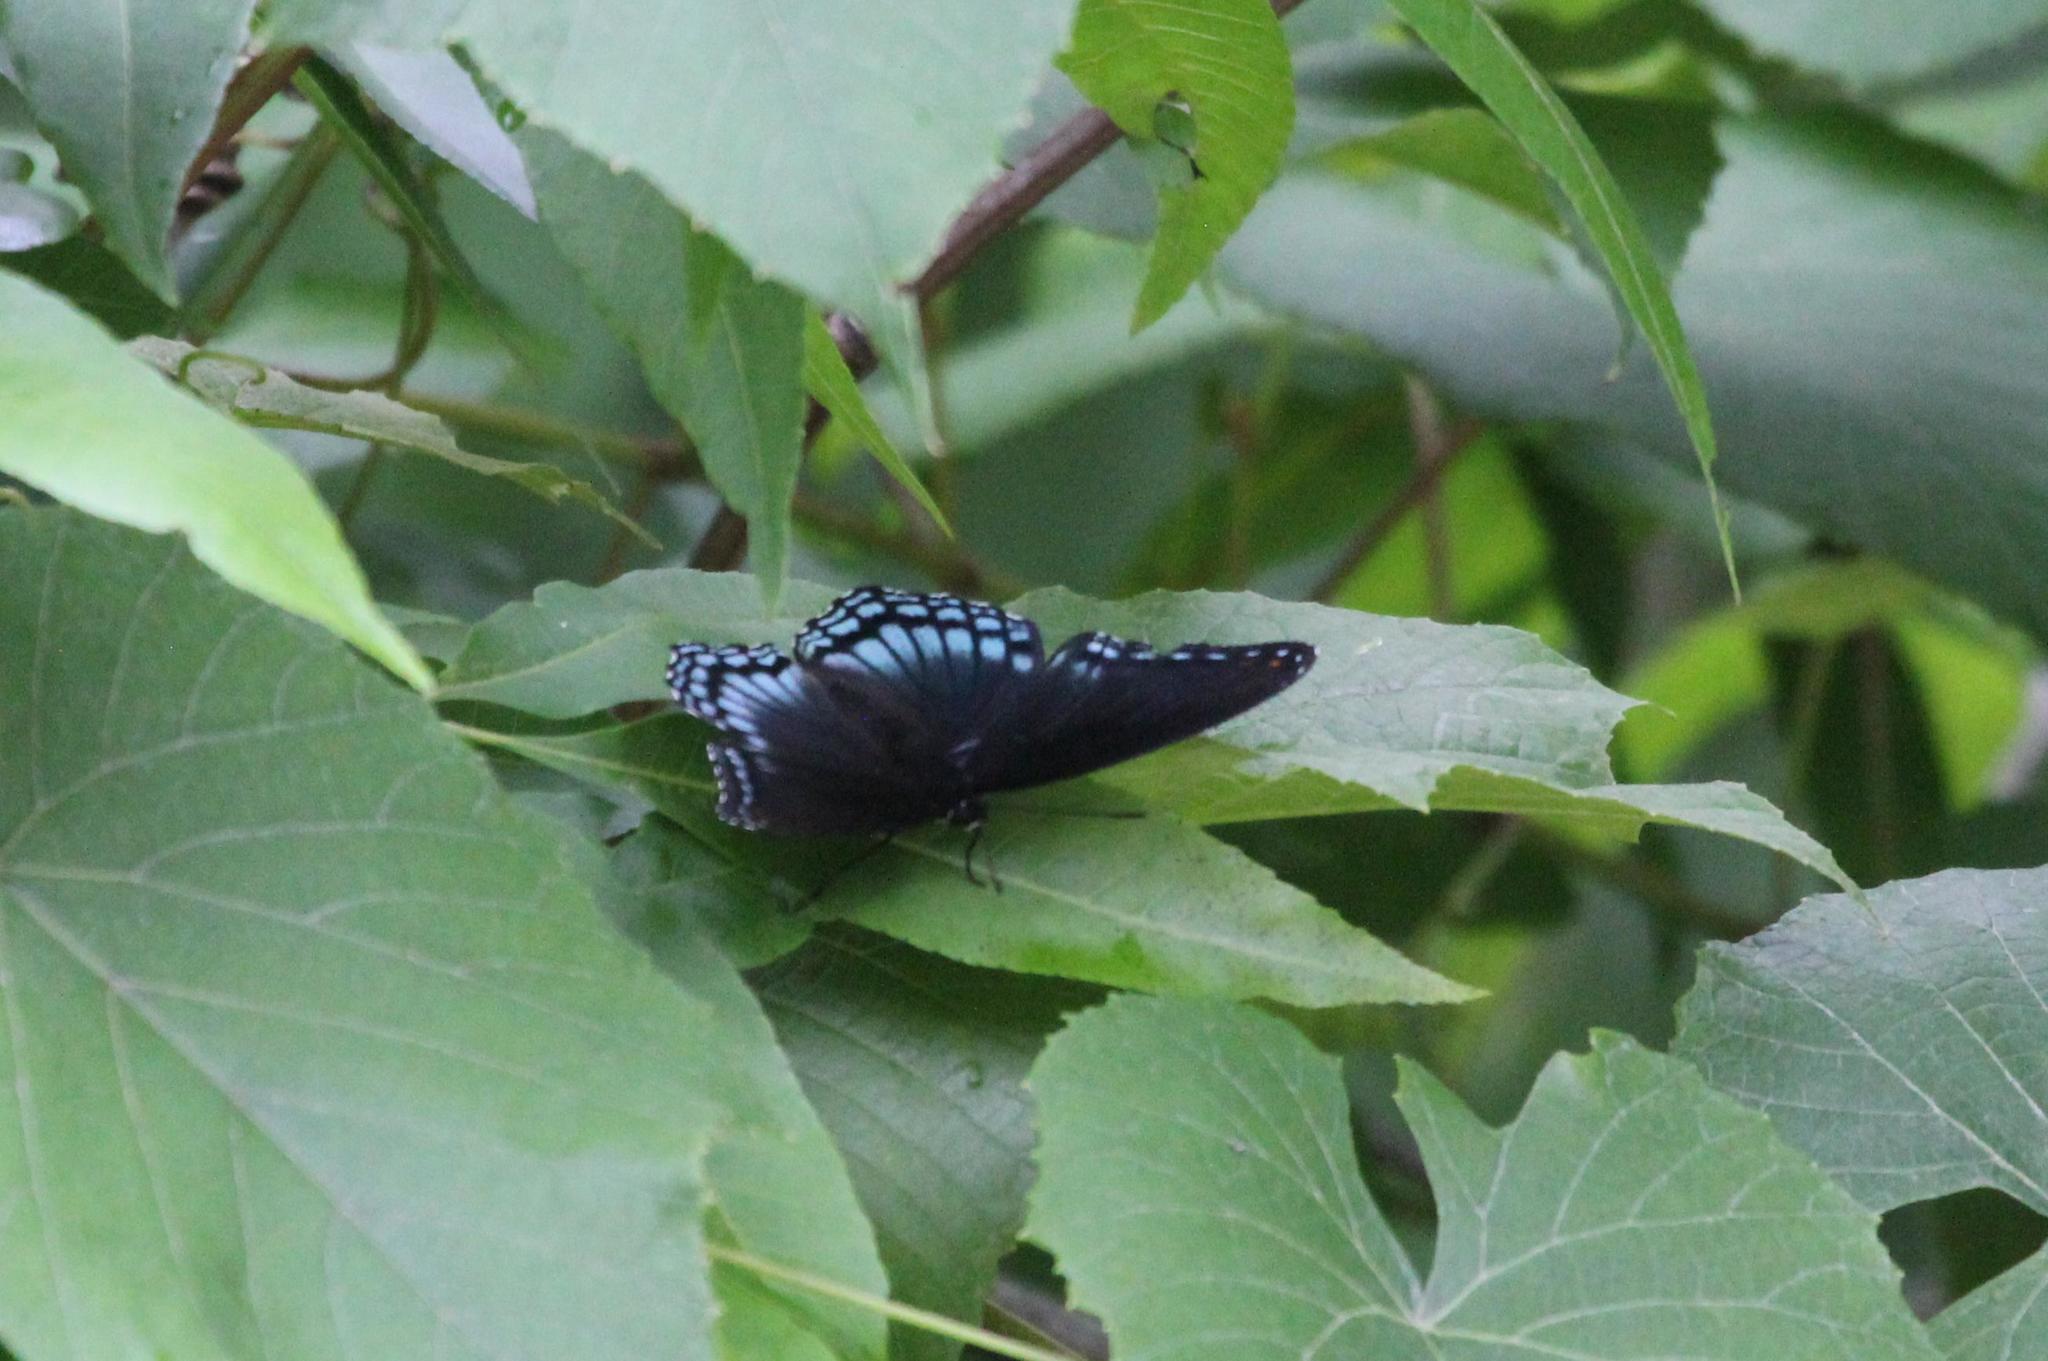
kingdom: Animalia
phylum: Arthropoda
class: Insecta
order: Lepidoptera
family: Nymphalidae
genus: Limenitis
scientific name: Limenitis astyanax
